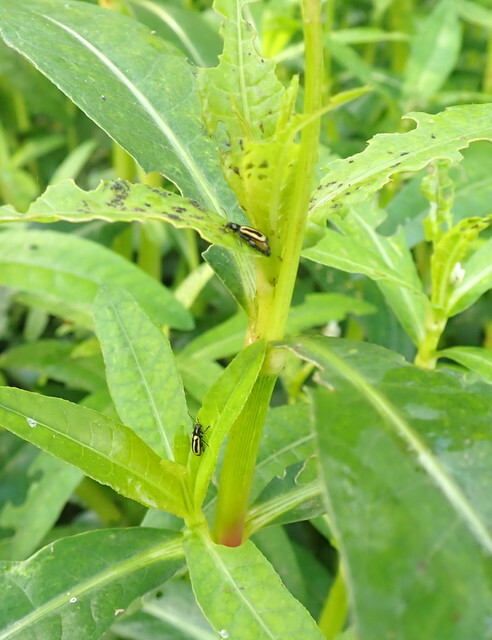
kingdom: Plantae
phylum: Tracheophyta
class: Magnoliopsida
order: Caryophyllales
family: Amaranthaceae
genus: Alternanthera
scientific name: Alternanthera philoxeroides
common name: Alligatorweed
